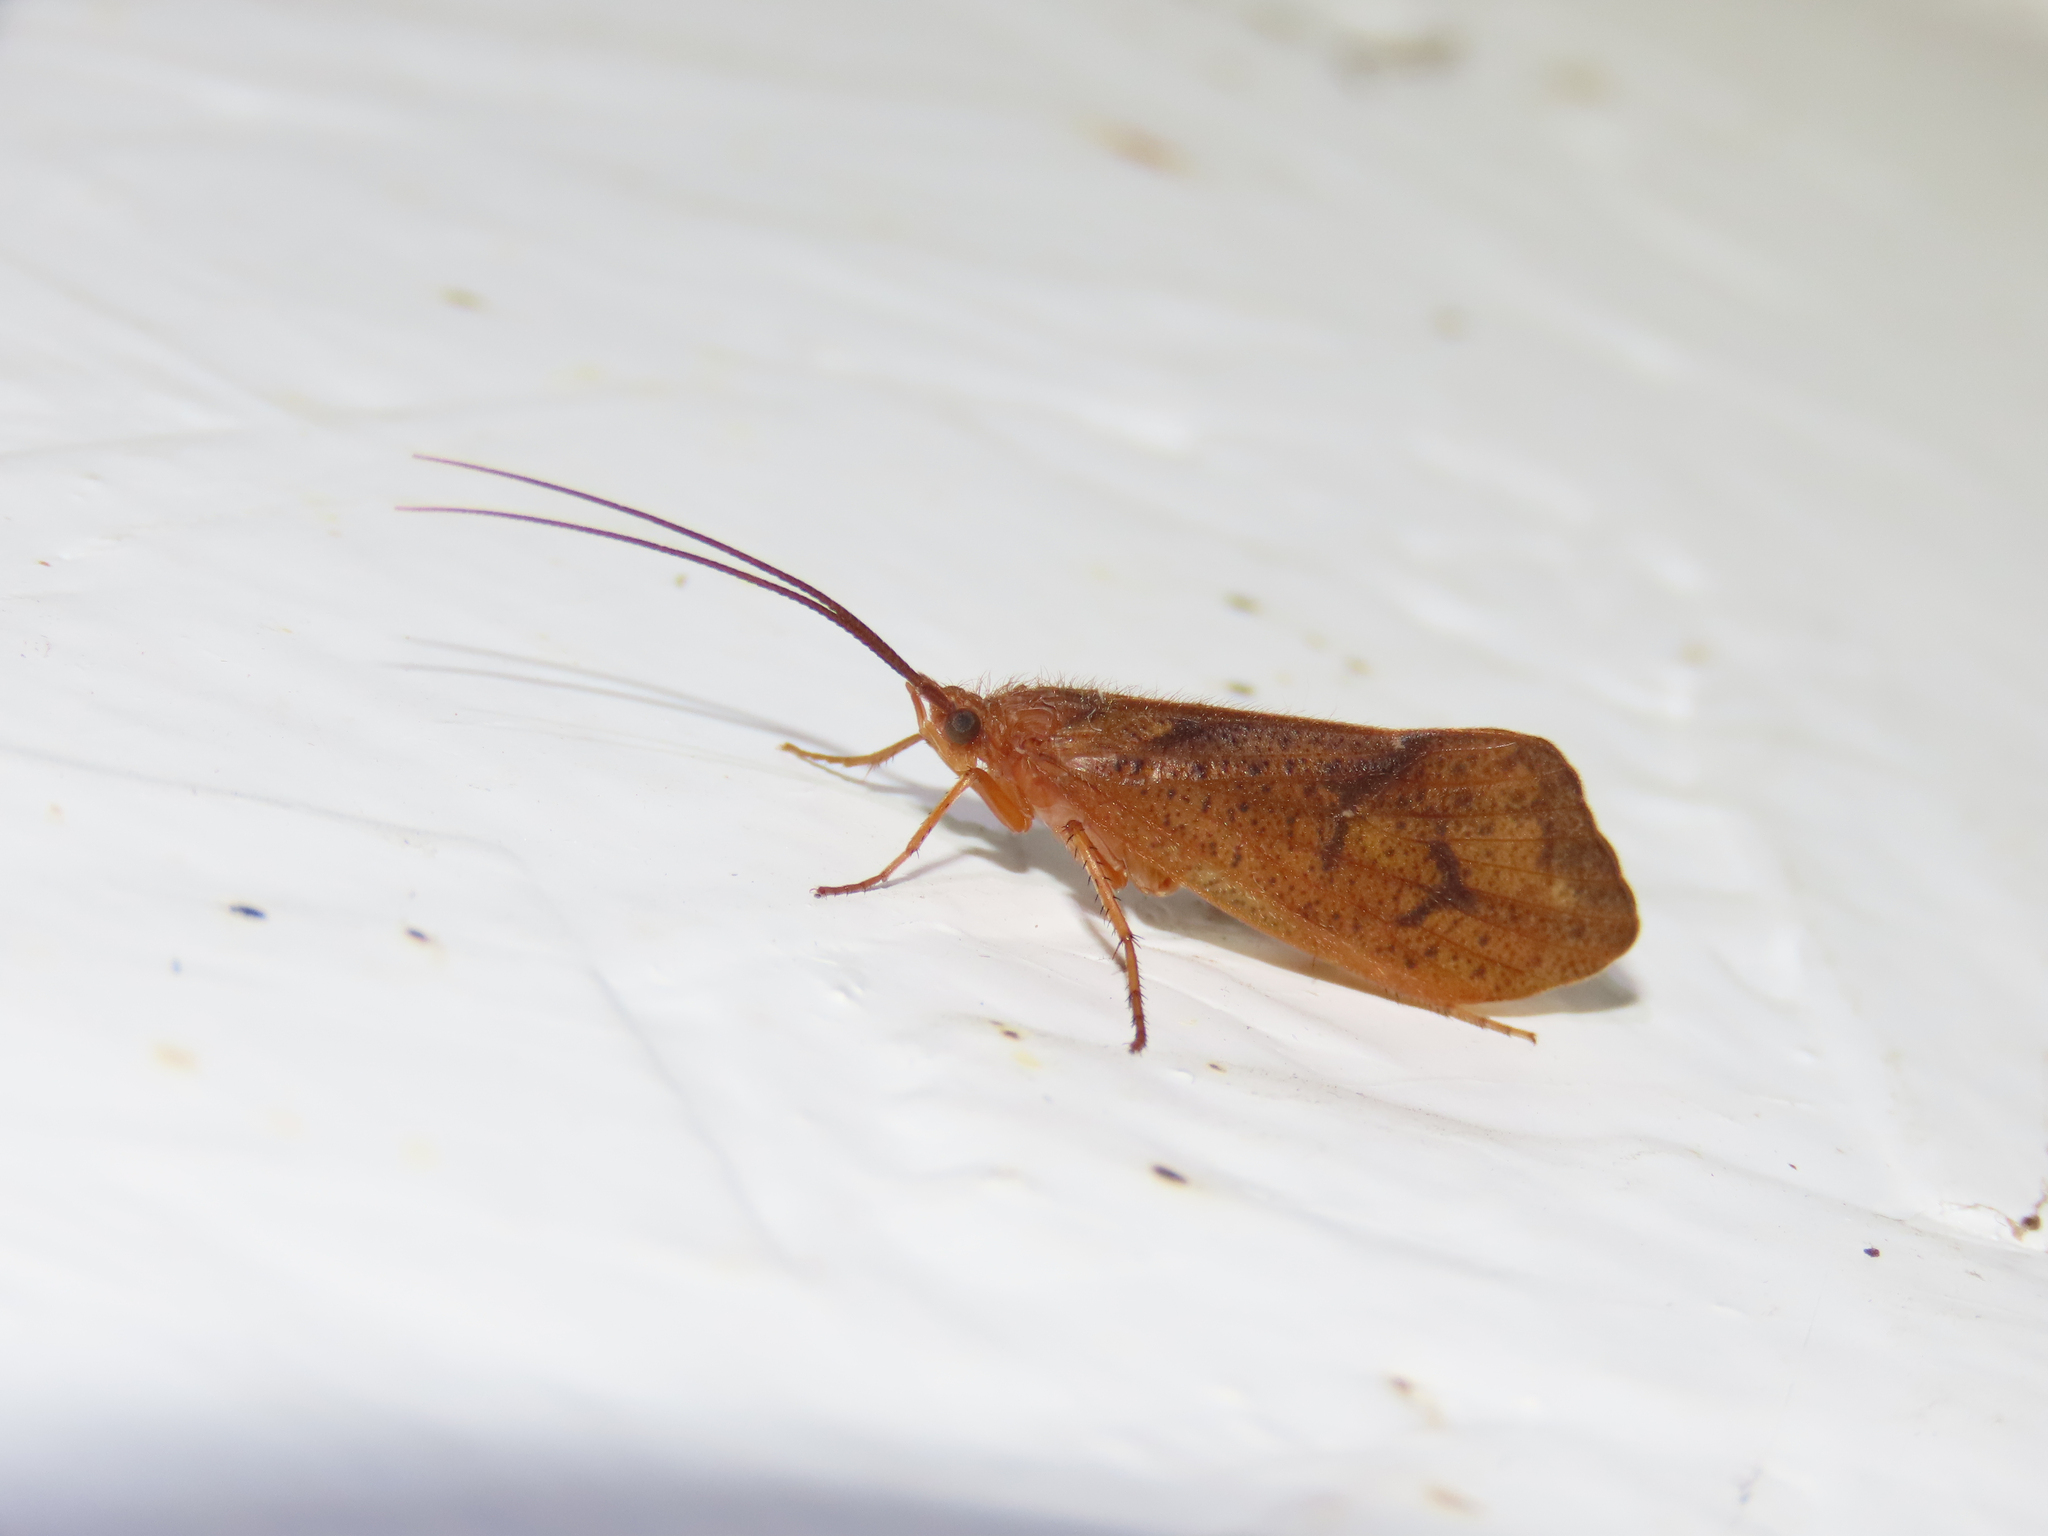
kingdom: Animalia
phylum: Arthropoda
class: Insecta
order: Trichoptera
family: Limnephilidae
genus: Pycnopsyche
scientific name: Pycnopsyche antica
